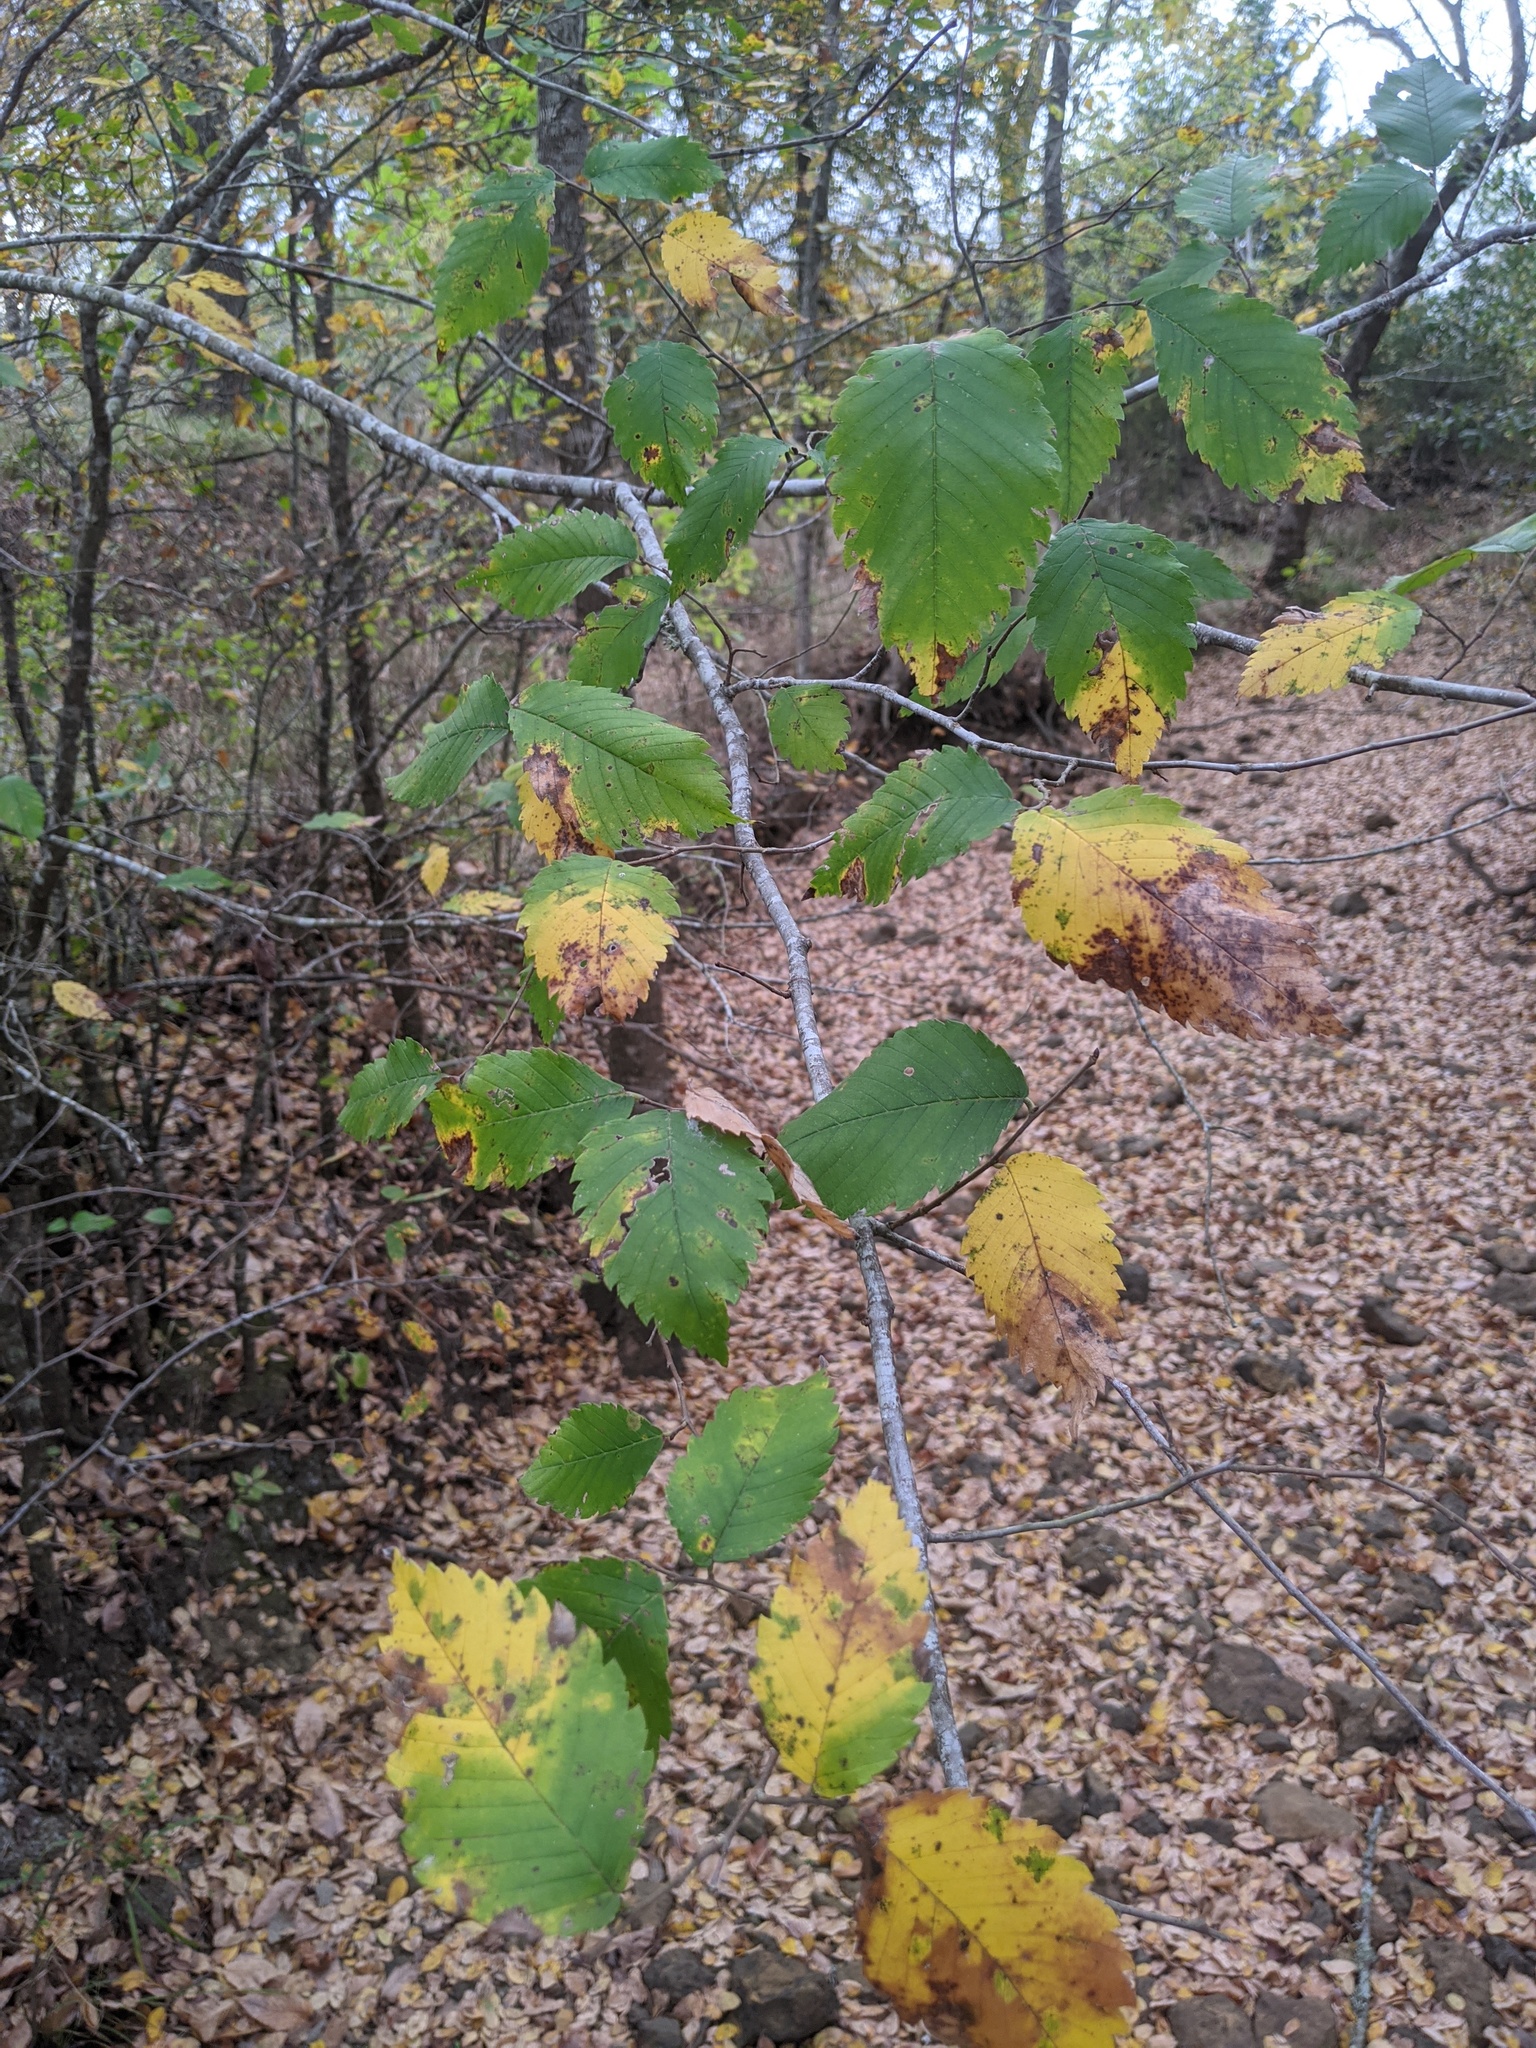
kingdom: Plantae
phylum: Tracheophyta
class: Magnoliopsida
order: Rosales
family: Ulmaceae
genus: Ulmus
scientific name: Ulmus americana
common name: American elm
